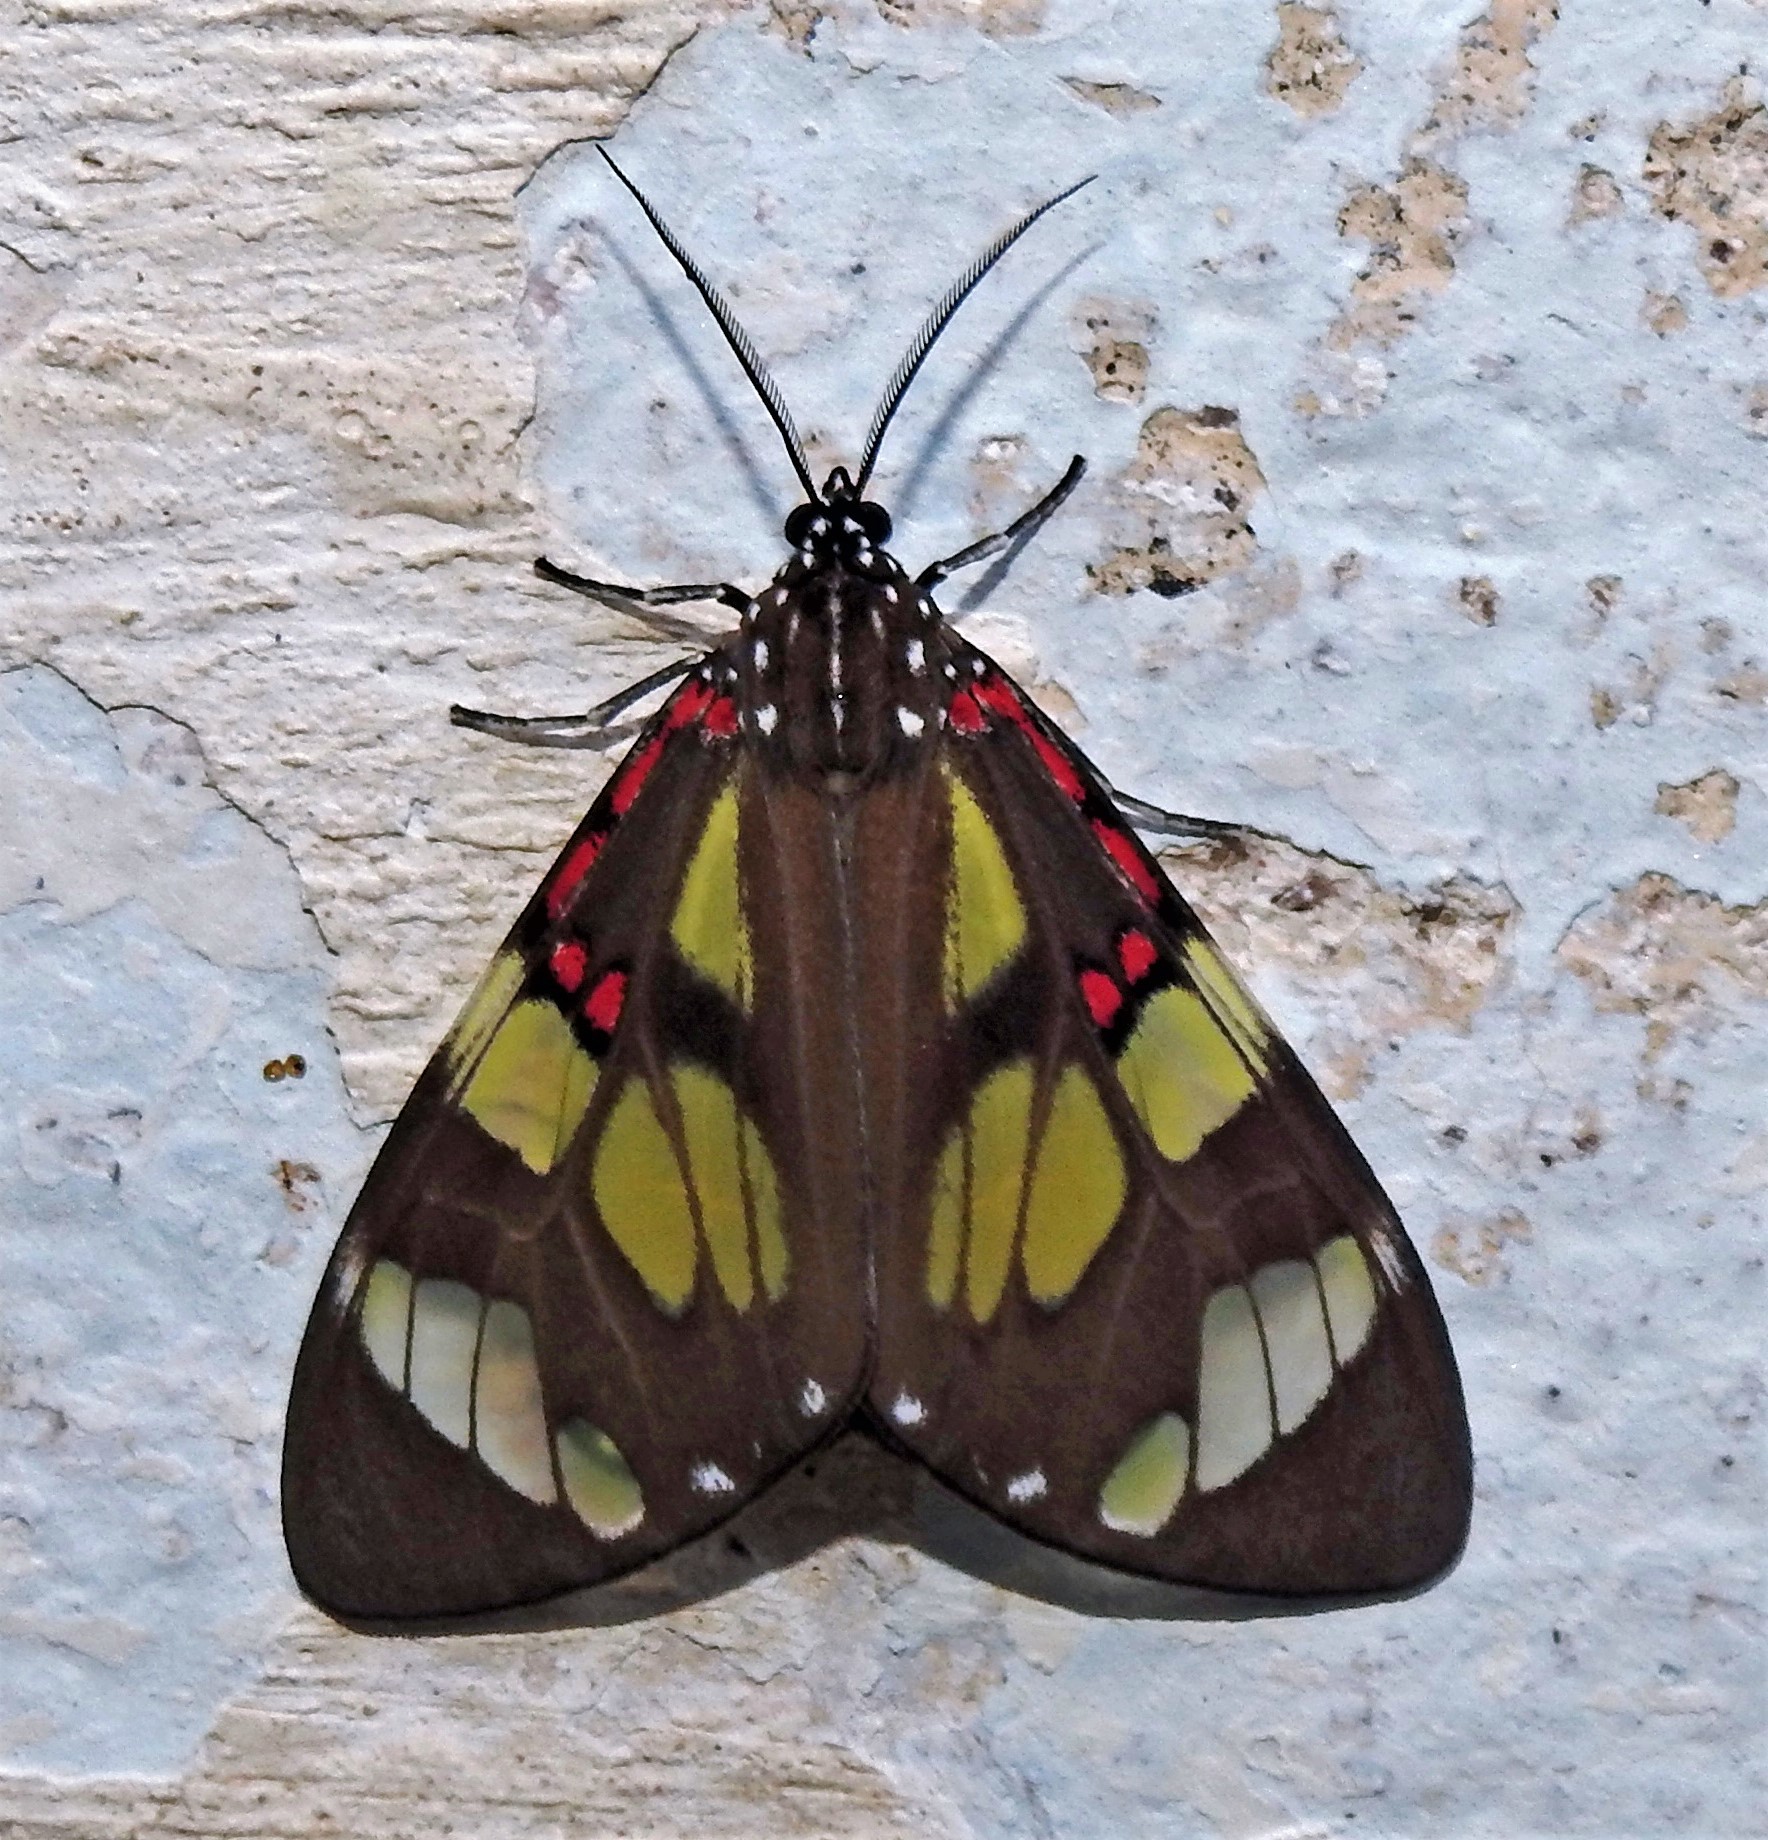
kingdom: Animalia
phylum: Arthropoda
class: Insecta
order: Lepidoptera
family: Erebidae
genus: Phaloe
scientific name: Phaloe cruenta
